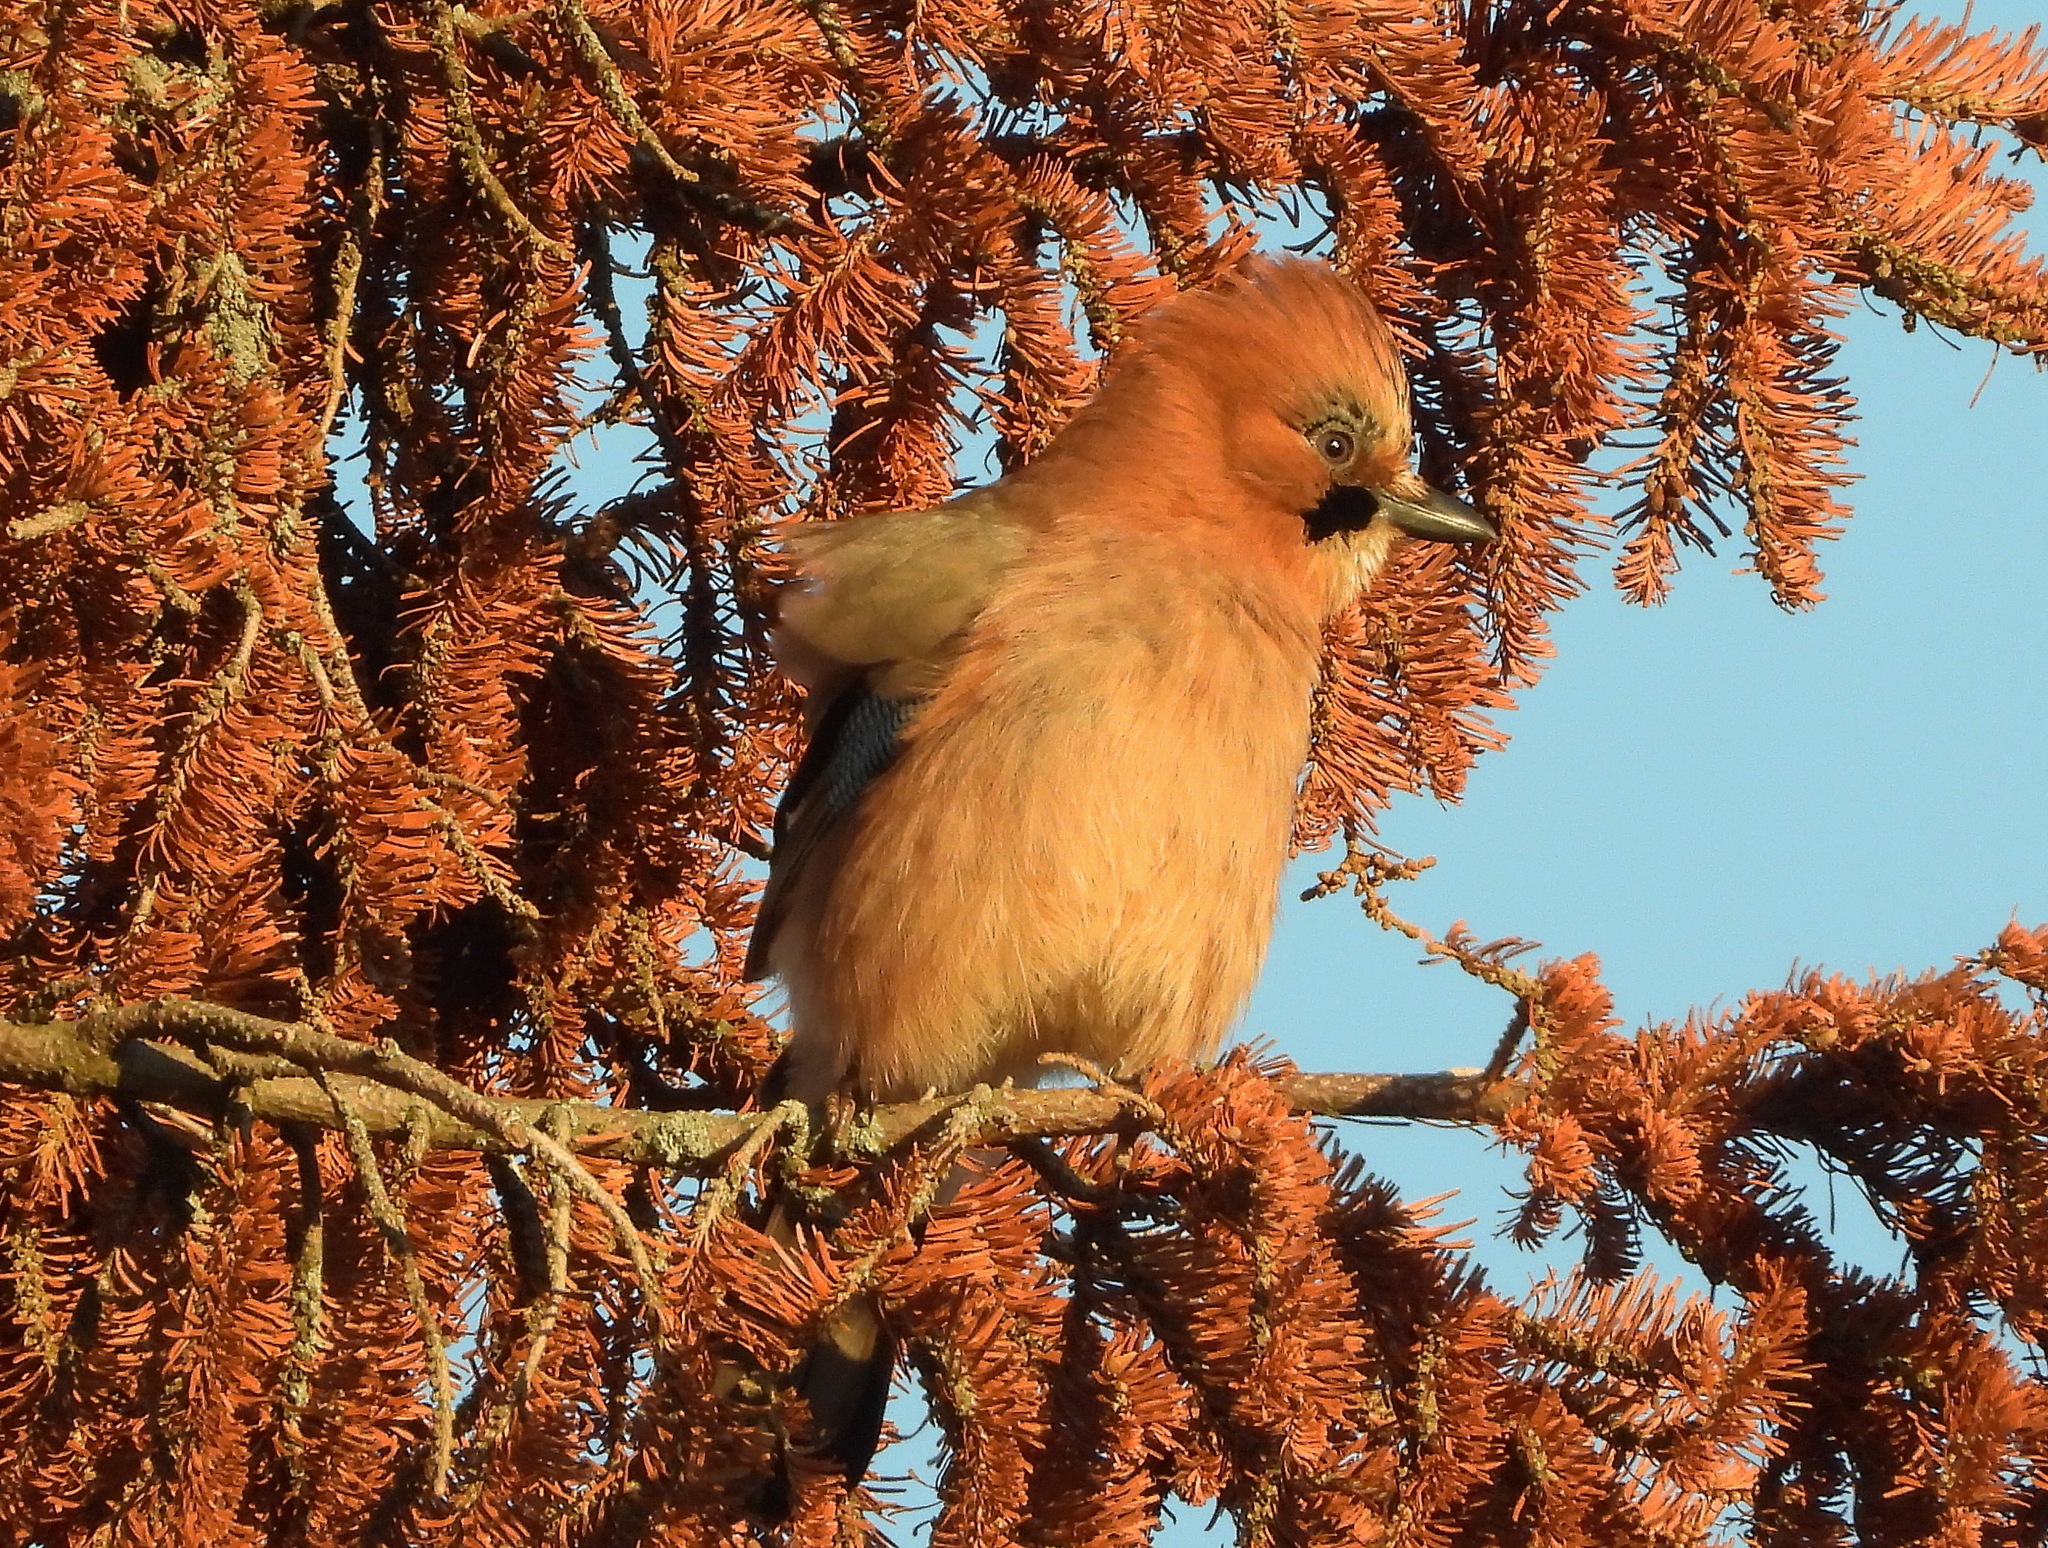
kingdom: Animalia
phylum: Chordata
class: Aves
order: Passeriformes
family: Corvidae
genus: Garrulus
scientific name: Garrulus glandarius
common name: Eurasian jay
